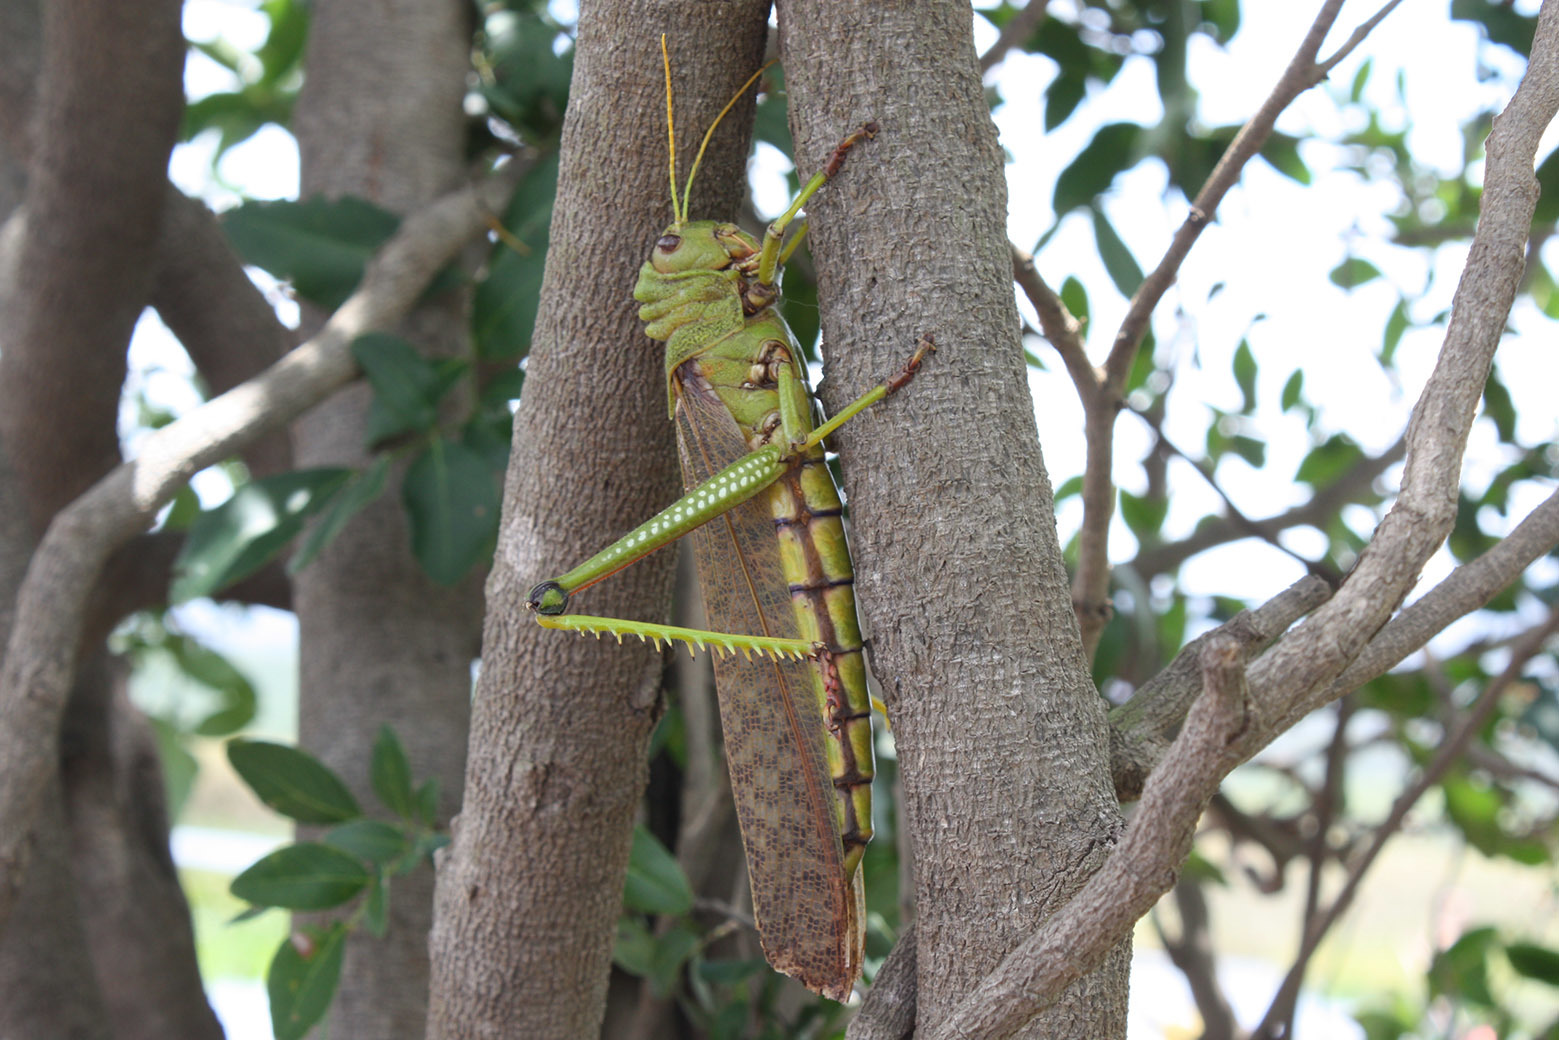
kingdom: Animalia
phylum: Arthropoda
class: Insecta
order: Orthoptera
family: Romaleidae
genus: Tropidacris
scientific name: Tropidacris collaris
